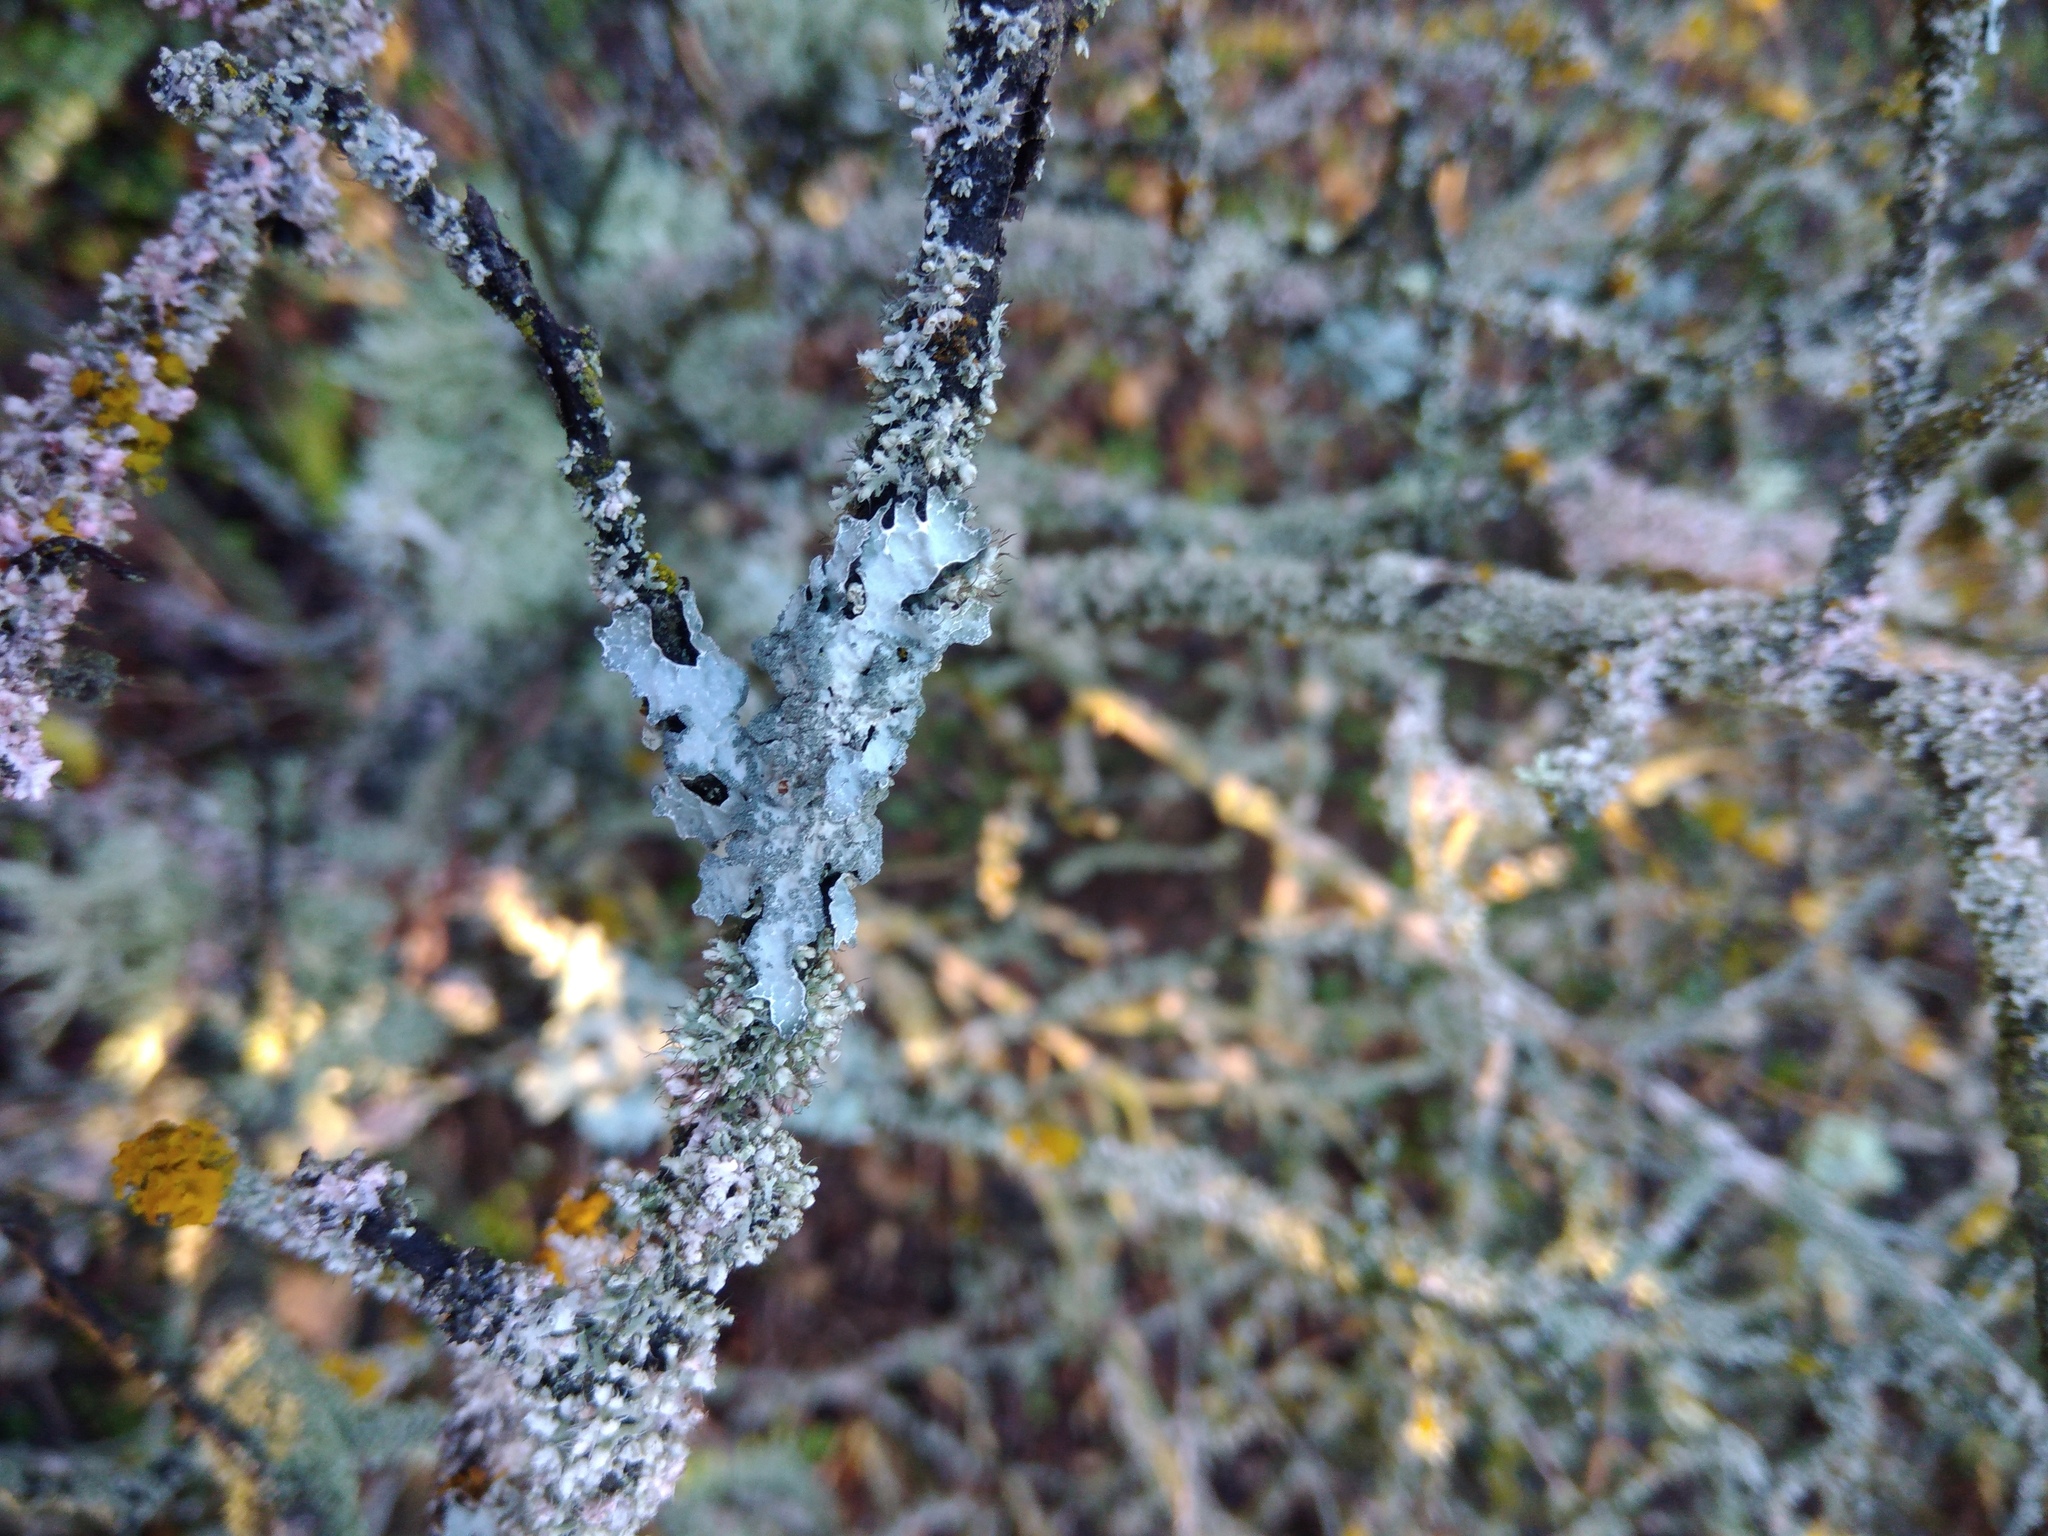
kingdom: Fungi
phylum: Ascomycota
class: Lecanoromycetes
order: Lecanorales
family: Parmeliaceae
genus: Parmelia
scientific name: Parmelia sulcata
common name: Netted shield lichen
